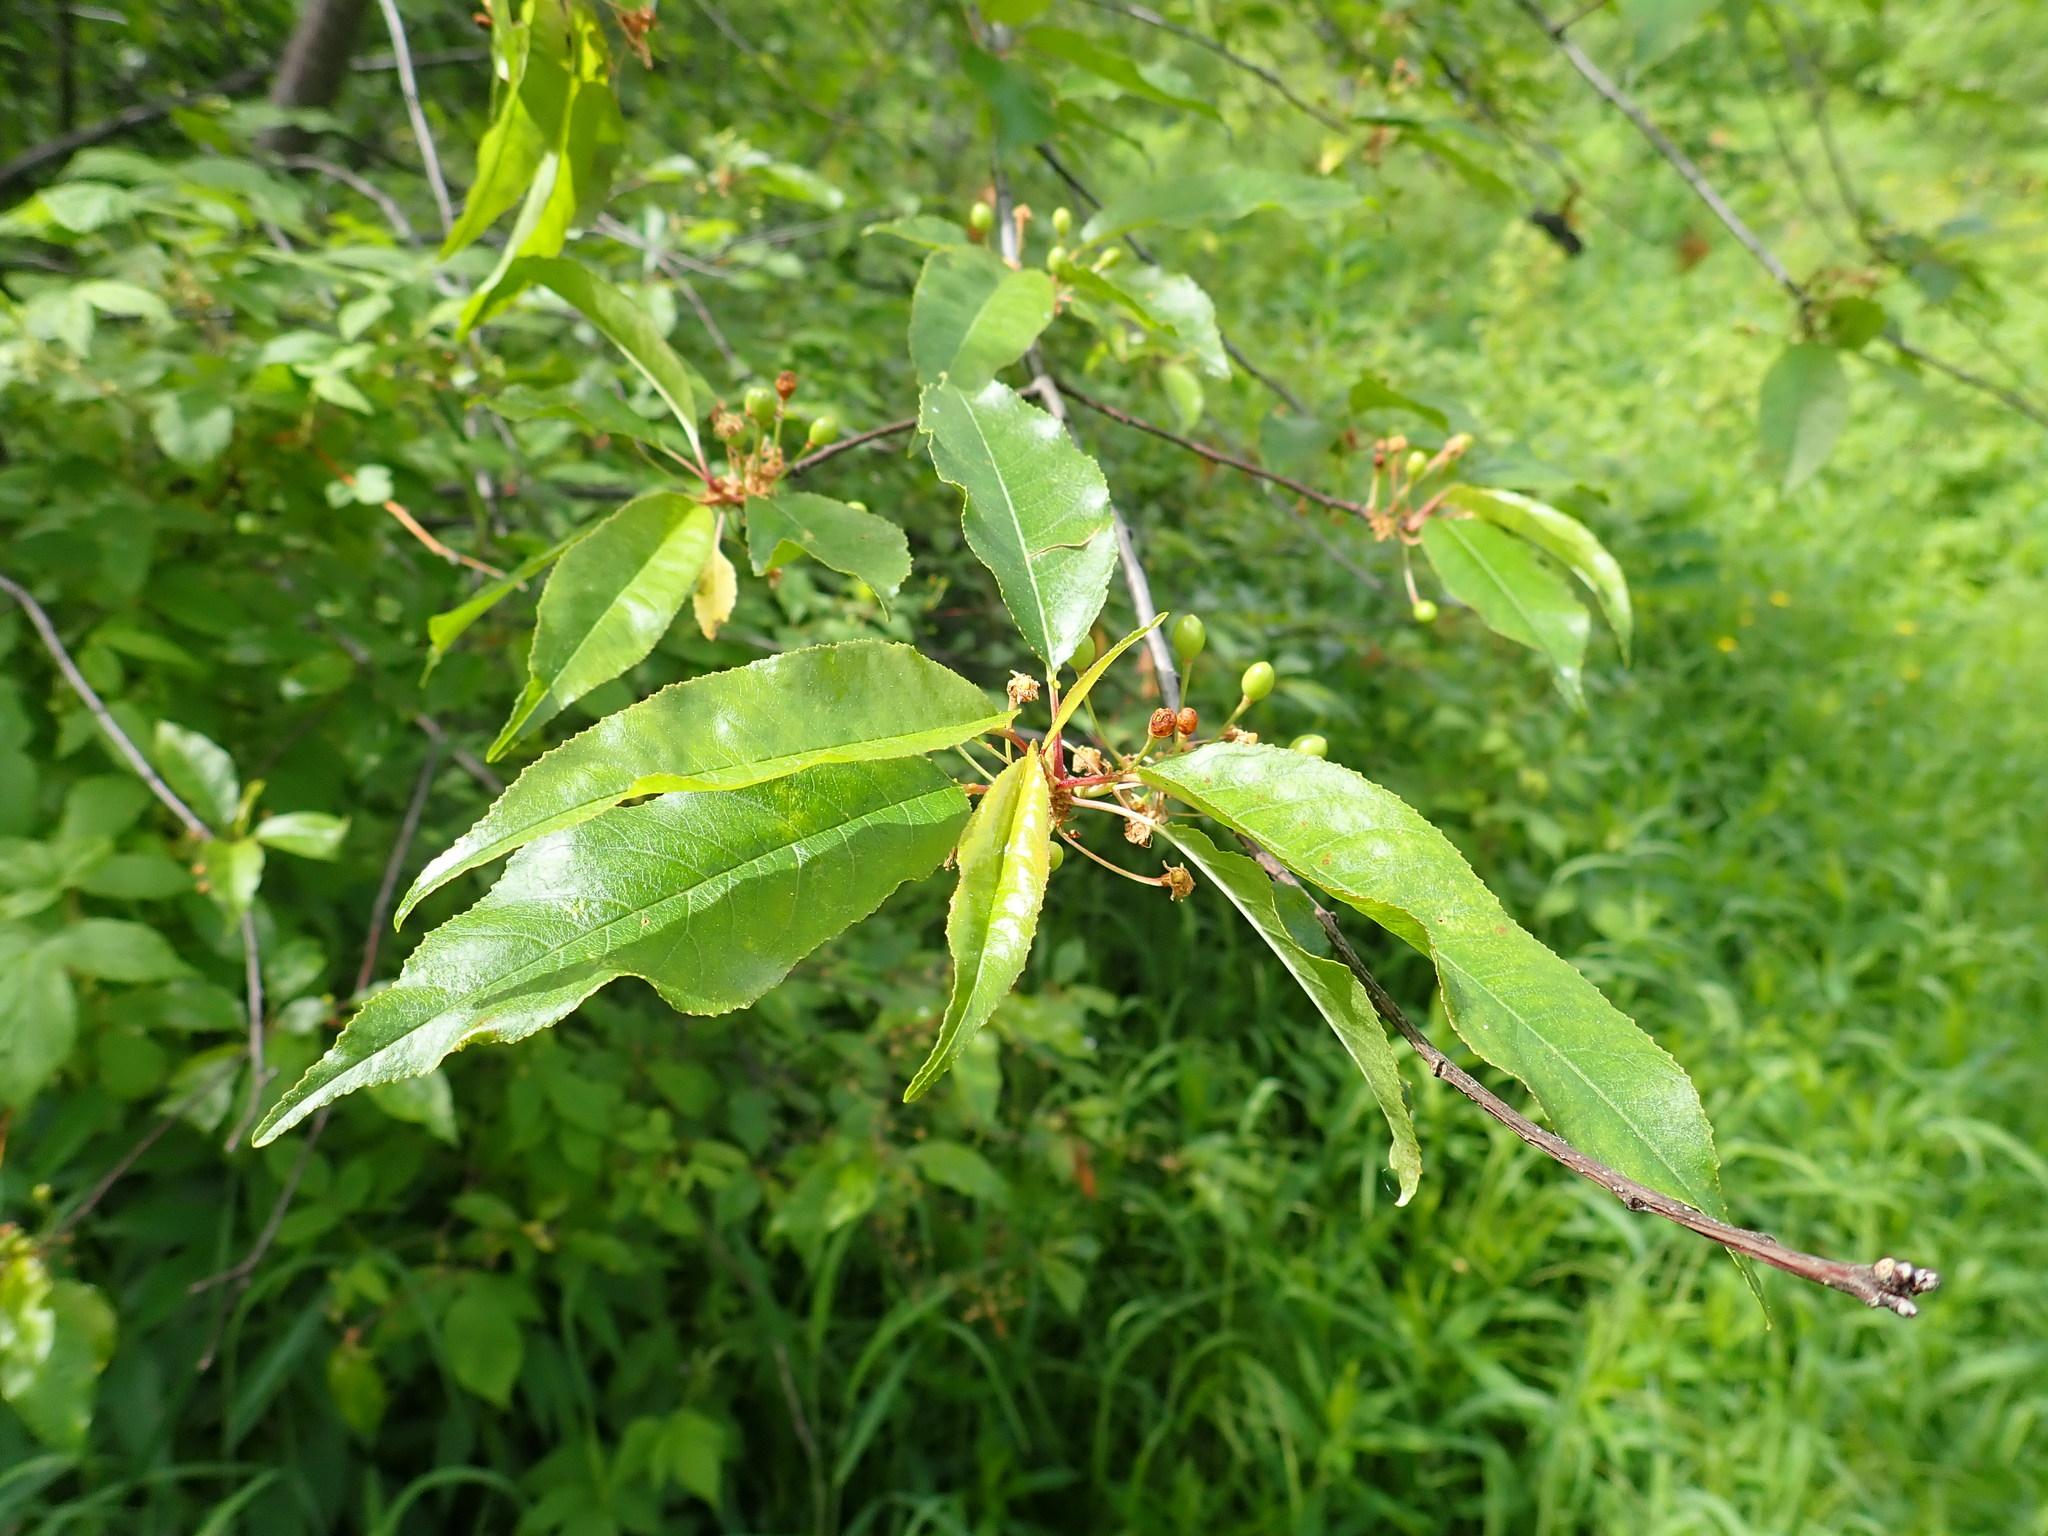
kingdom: Plantae
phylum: Tracheophyta
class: Magnoliopsida
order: Rosales
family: Rosaceae
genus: Prunus
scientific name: Prunus pensylvanica
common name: Pin cherry
